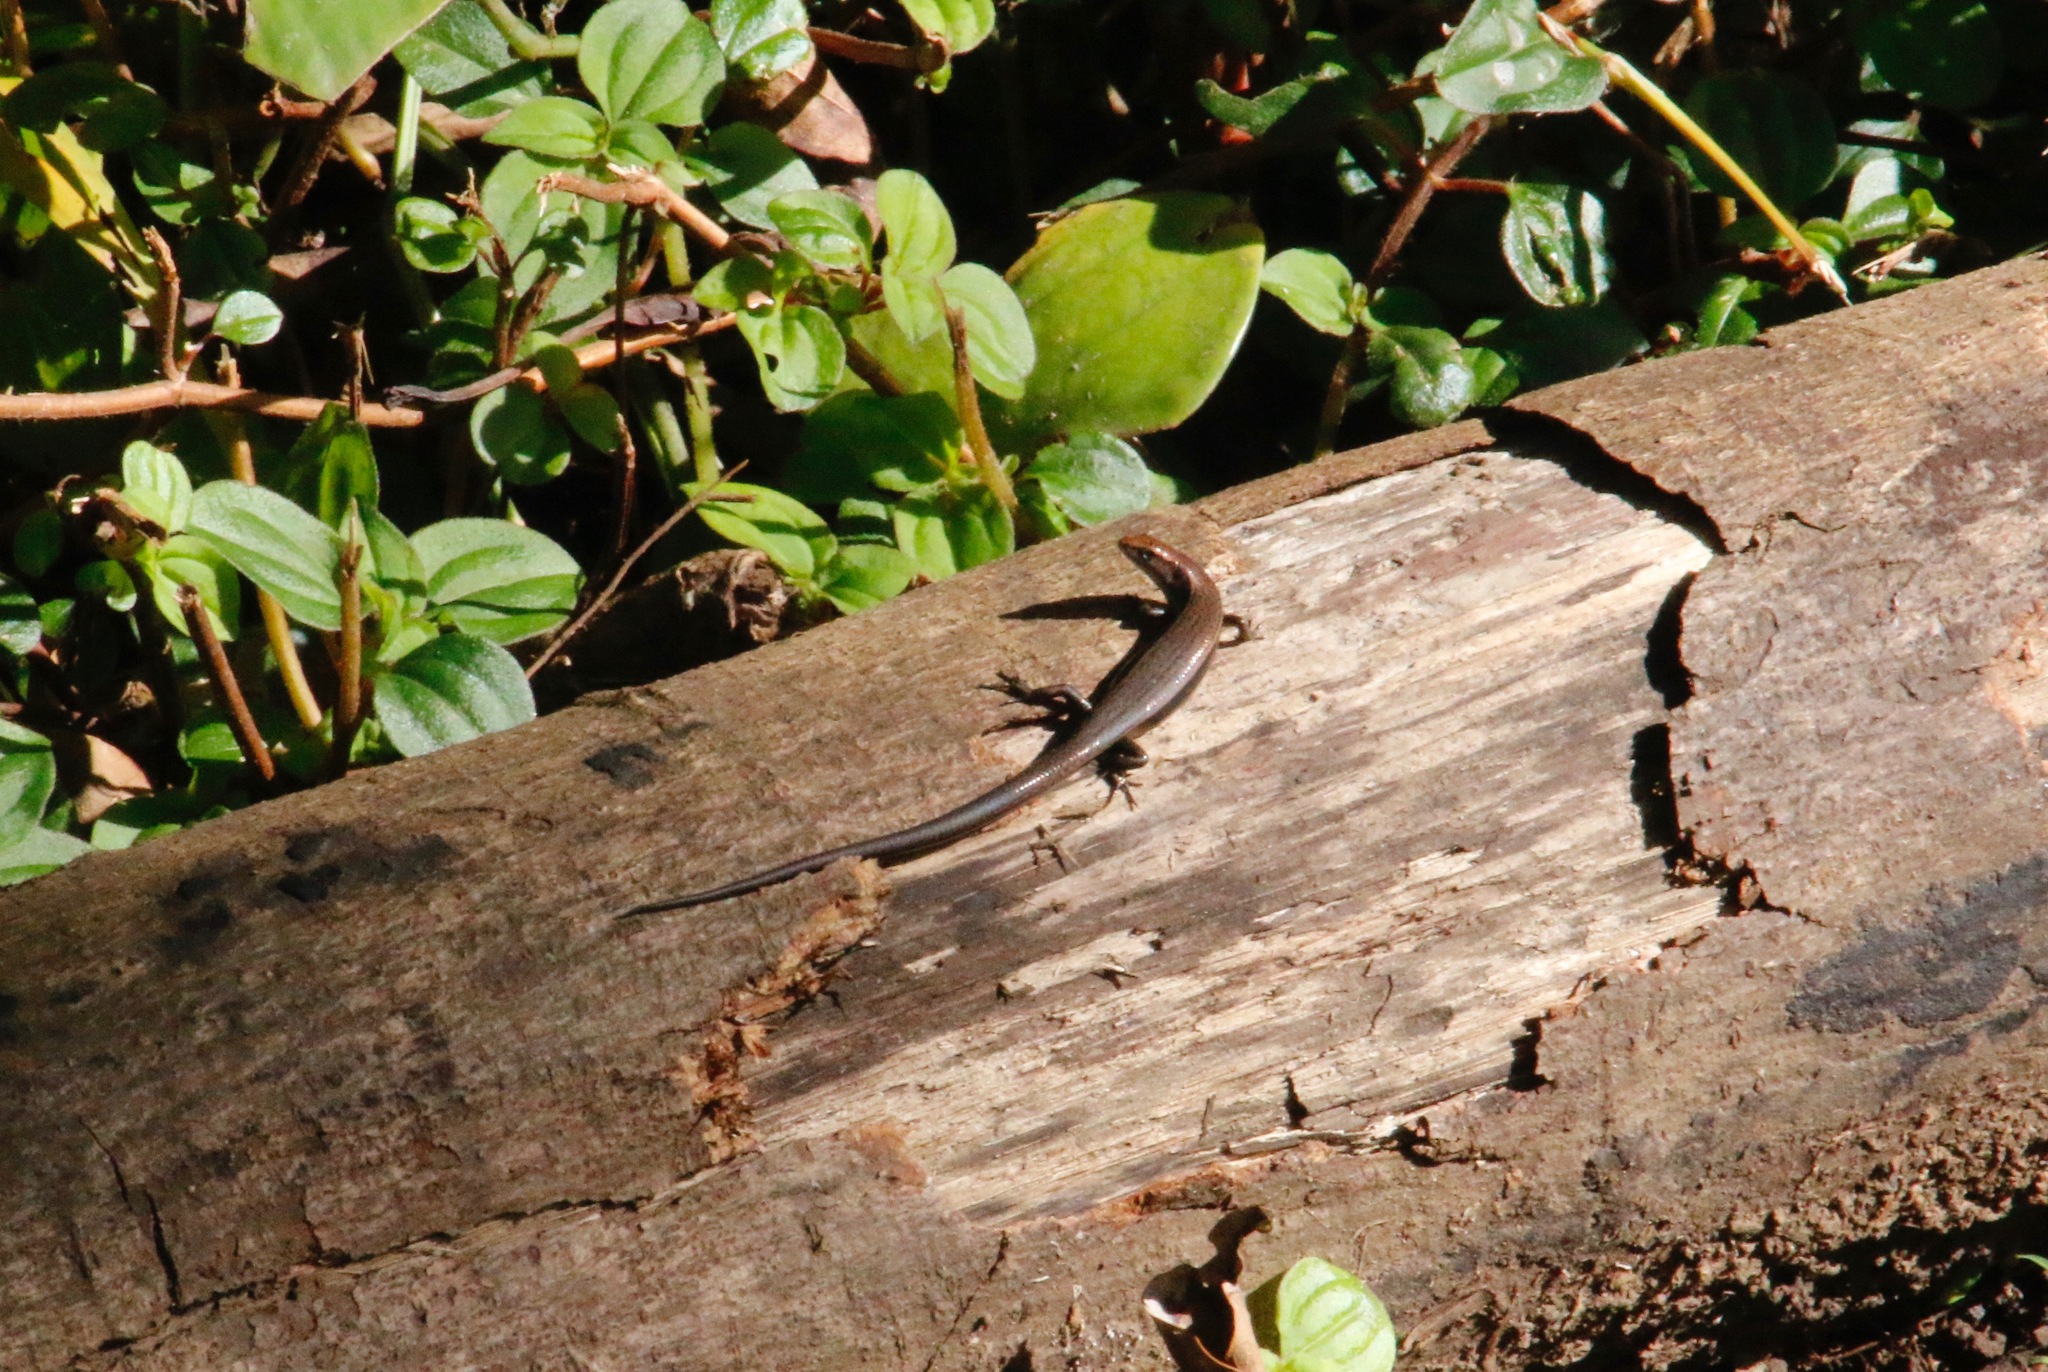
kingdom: Animalia
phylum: Chordata
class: Squamata
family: Scincidae
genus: Lampropholis
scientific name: Lampropholis delicata
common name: Plague skink
